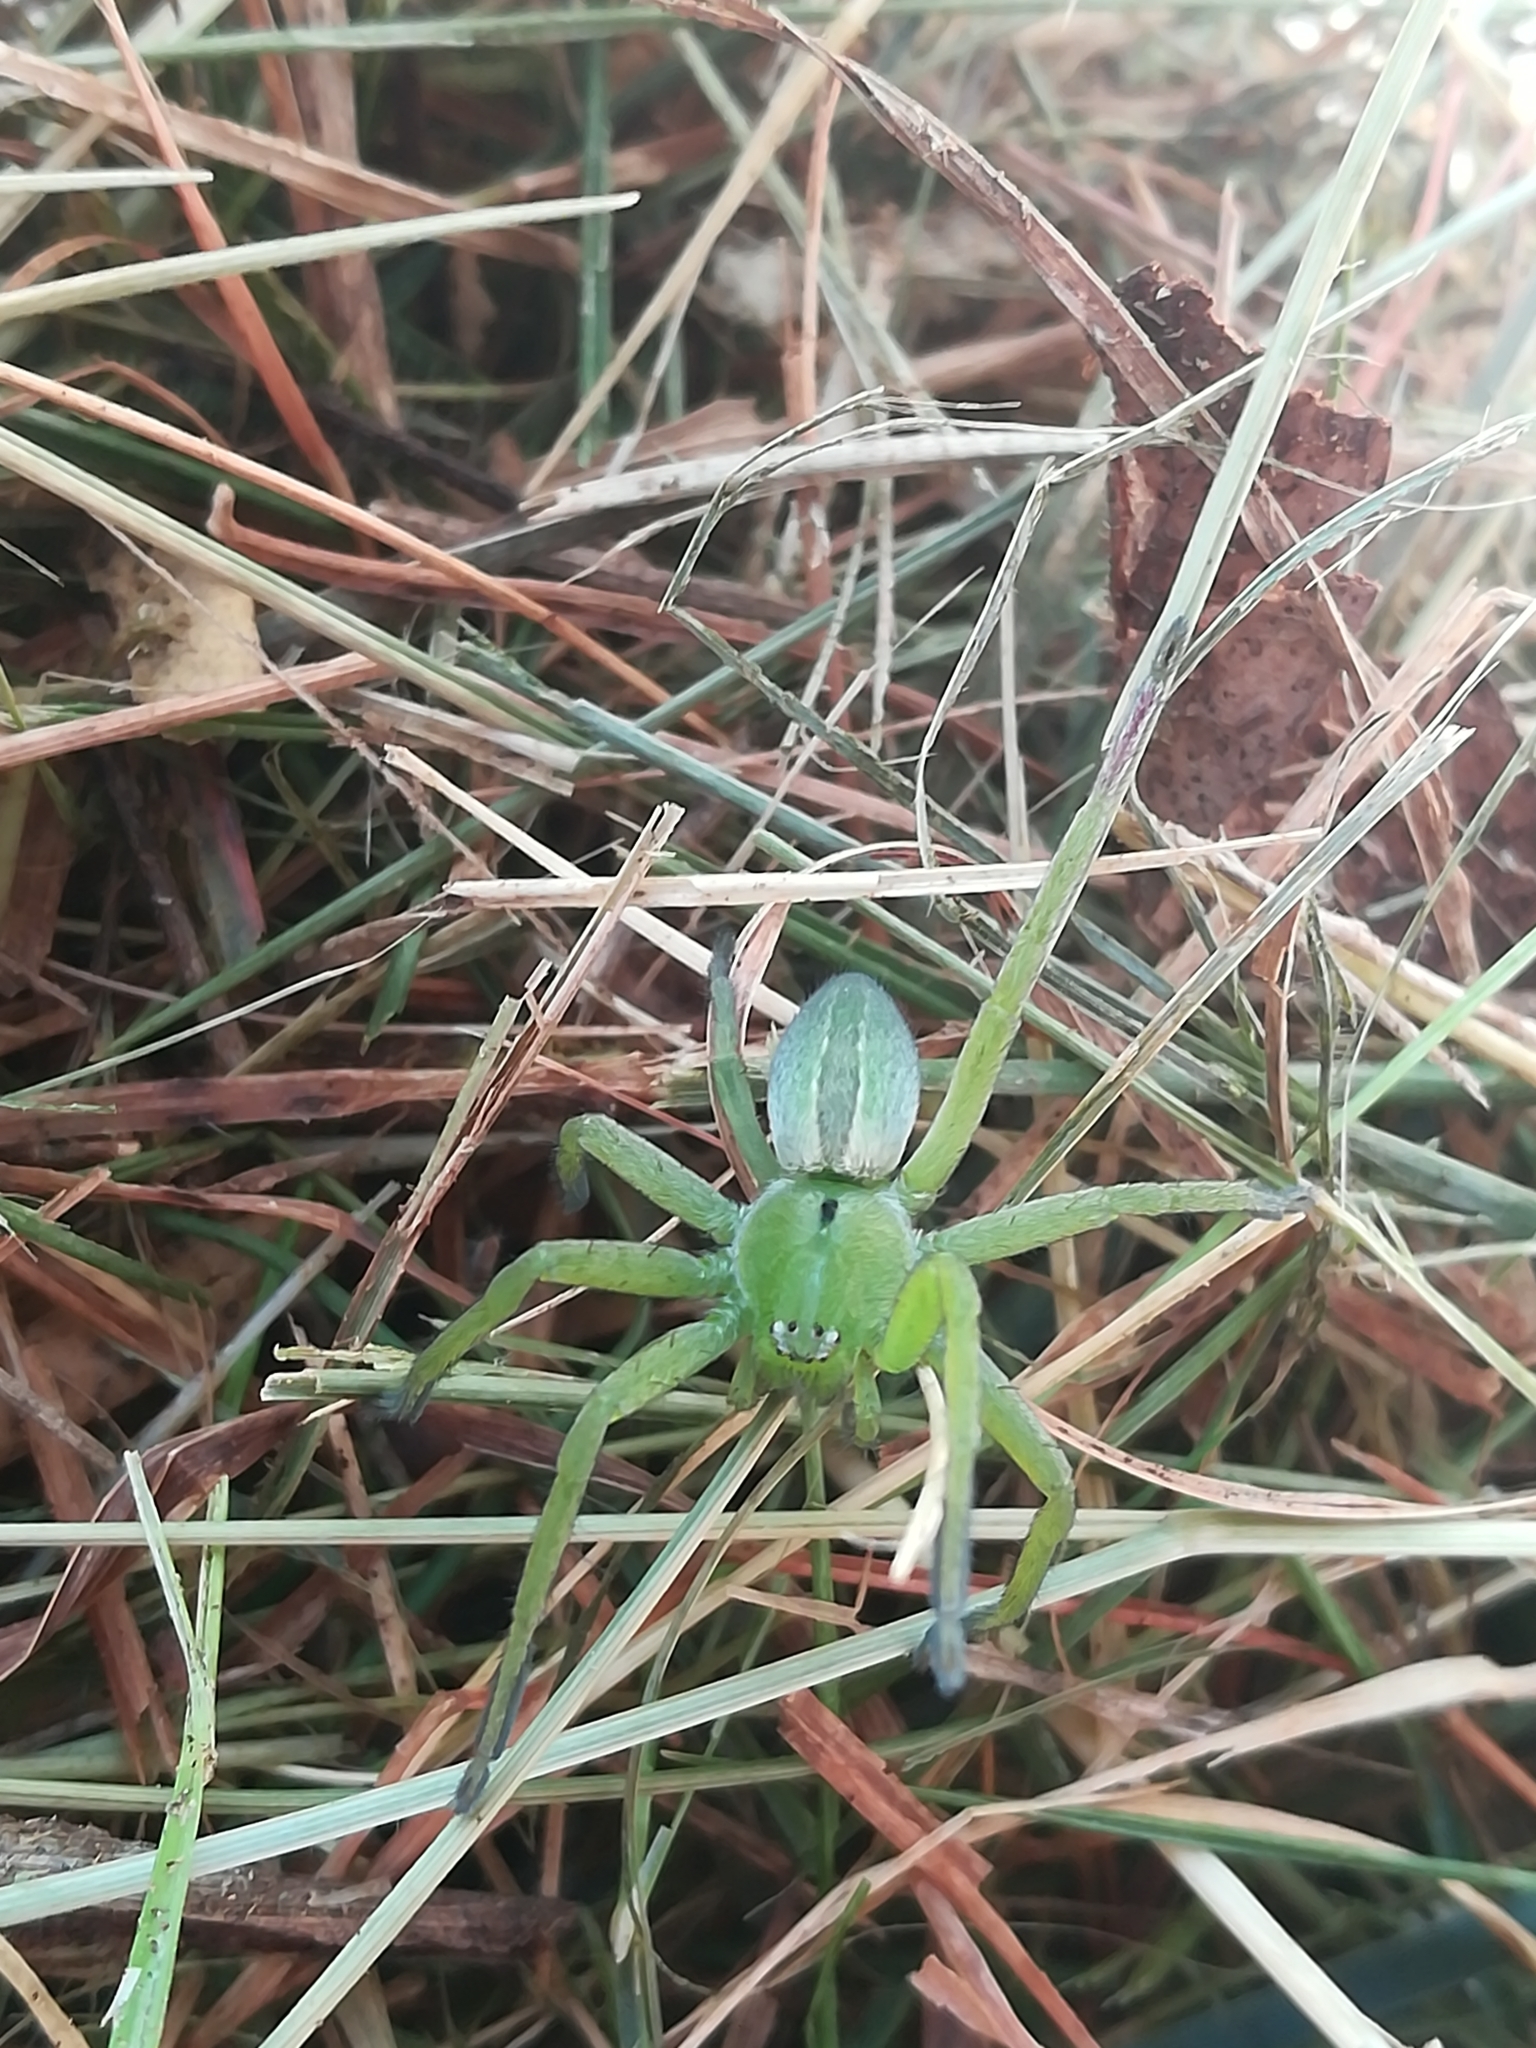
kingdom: Animalia
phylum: Arthropoda
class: Arachnida
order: Araneae
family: Sparassidae
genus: Micrommata
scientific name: Micrommata ligurina
